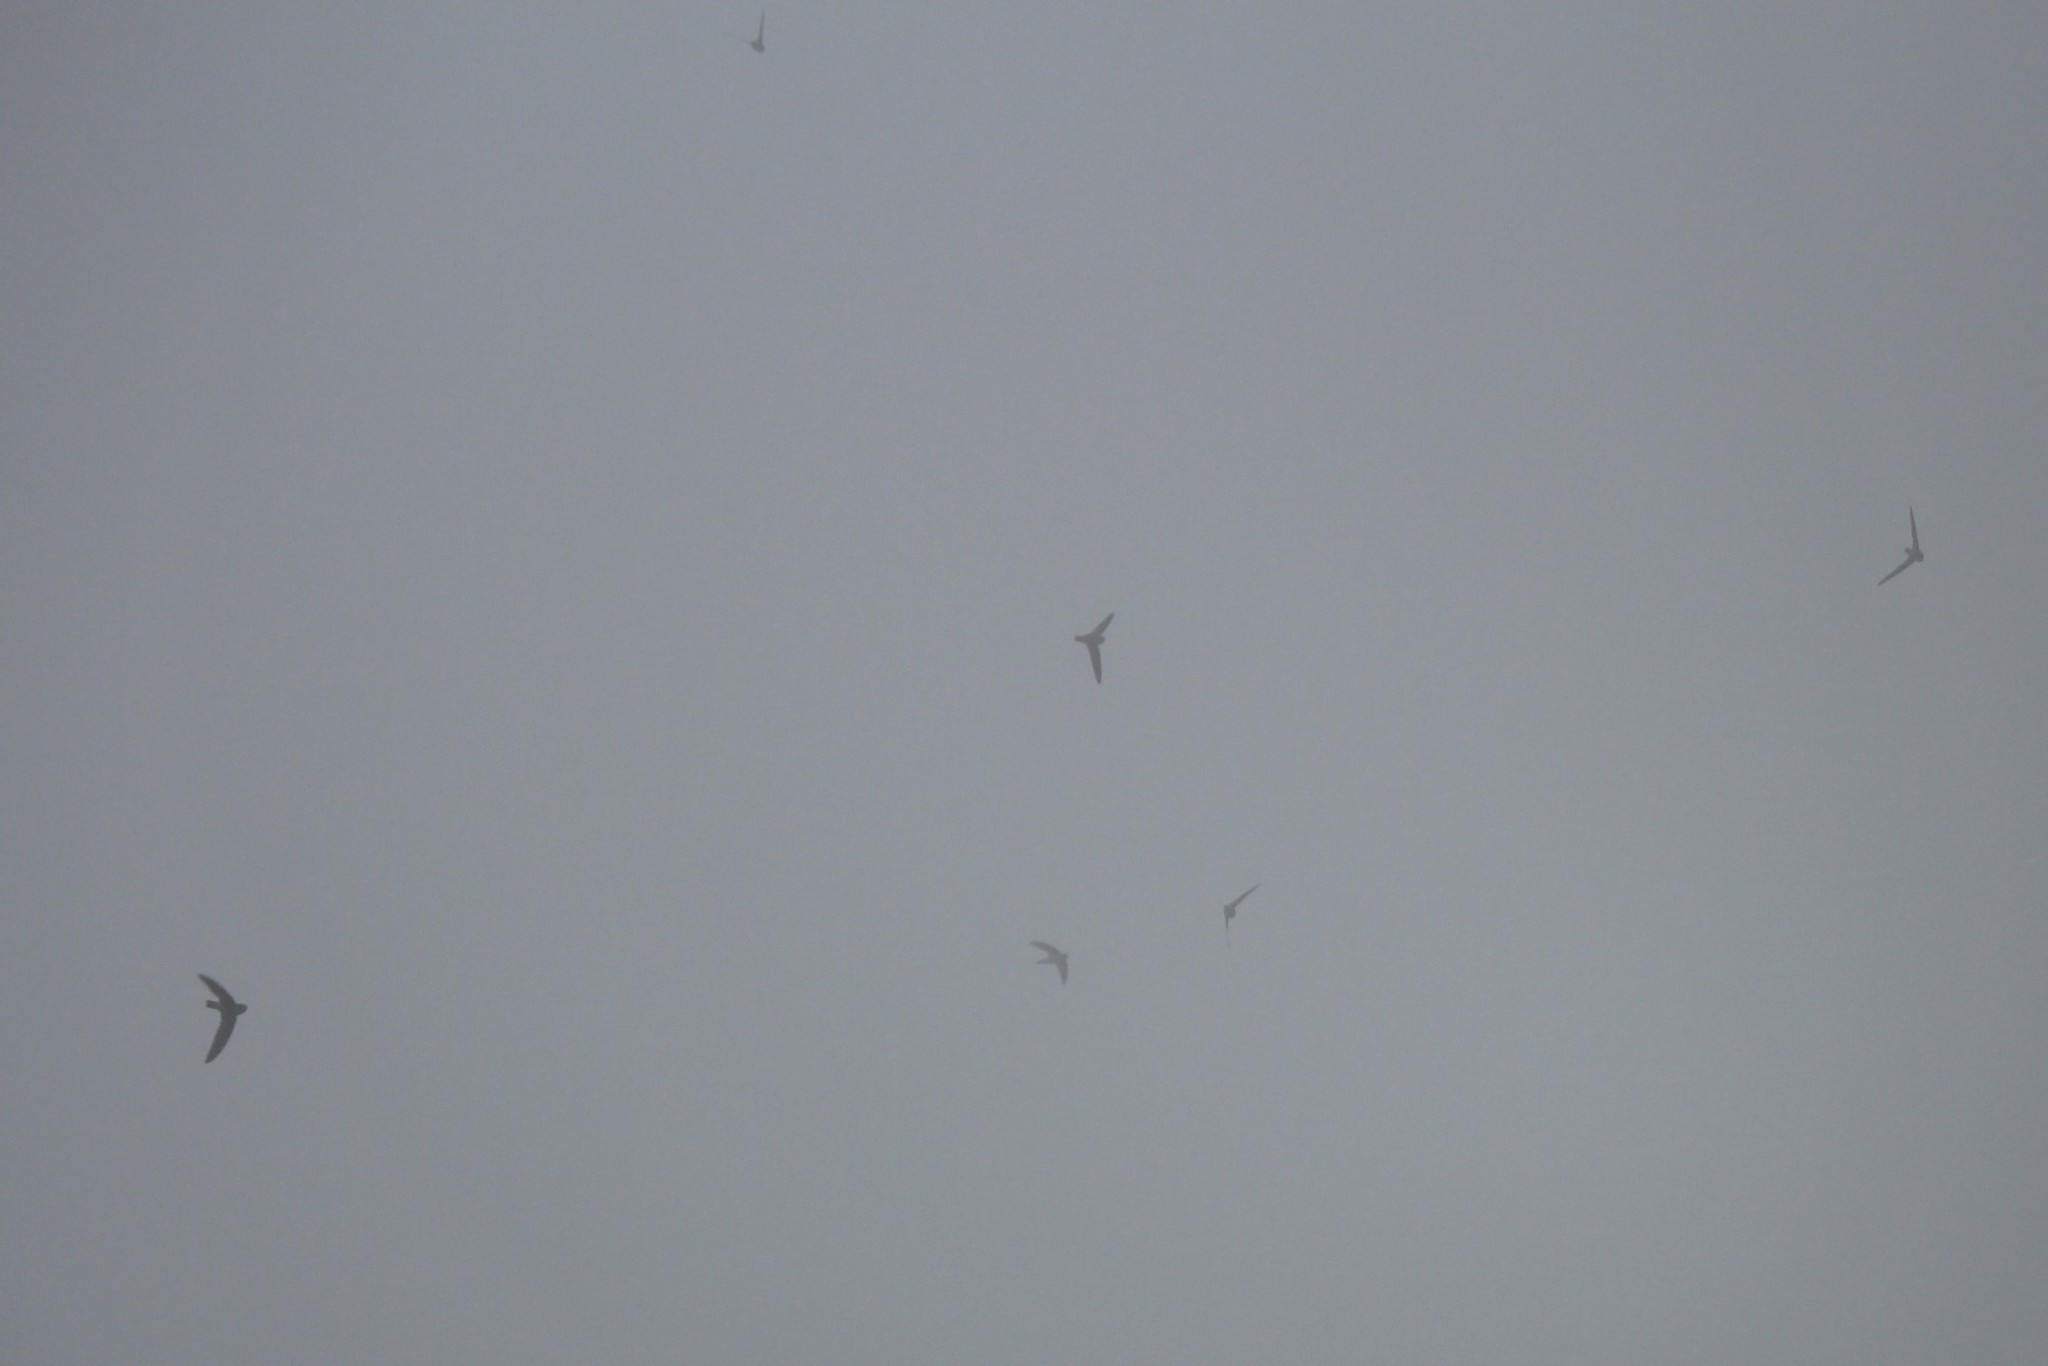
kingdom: Animalia
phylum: Chordata
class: Aves
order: Apodiformes
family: Apodidae
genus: Aerodramus
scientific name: Aerodramus unicolor
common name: Indian swiftlet
